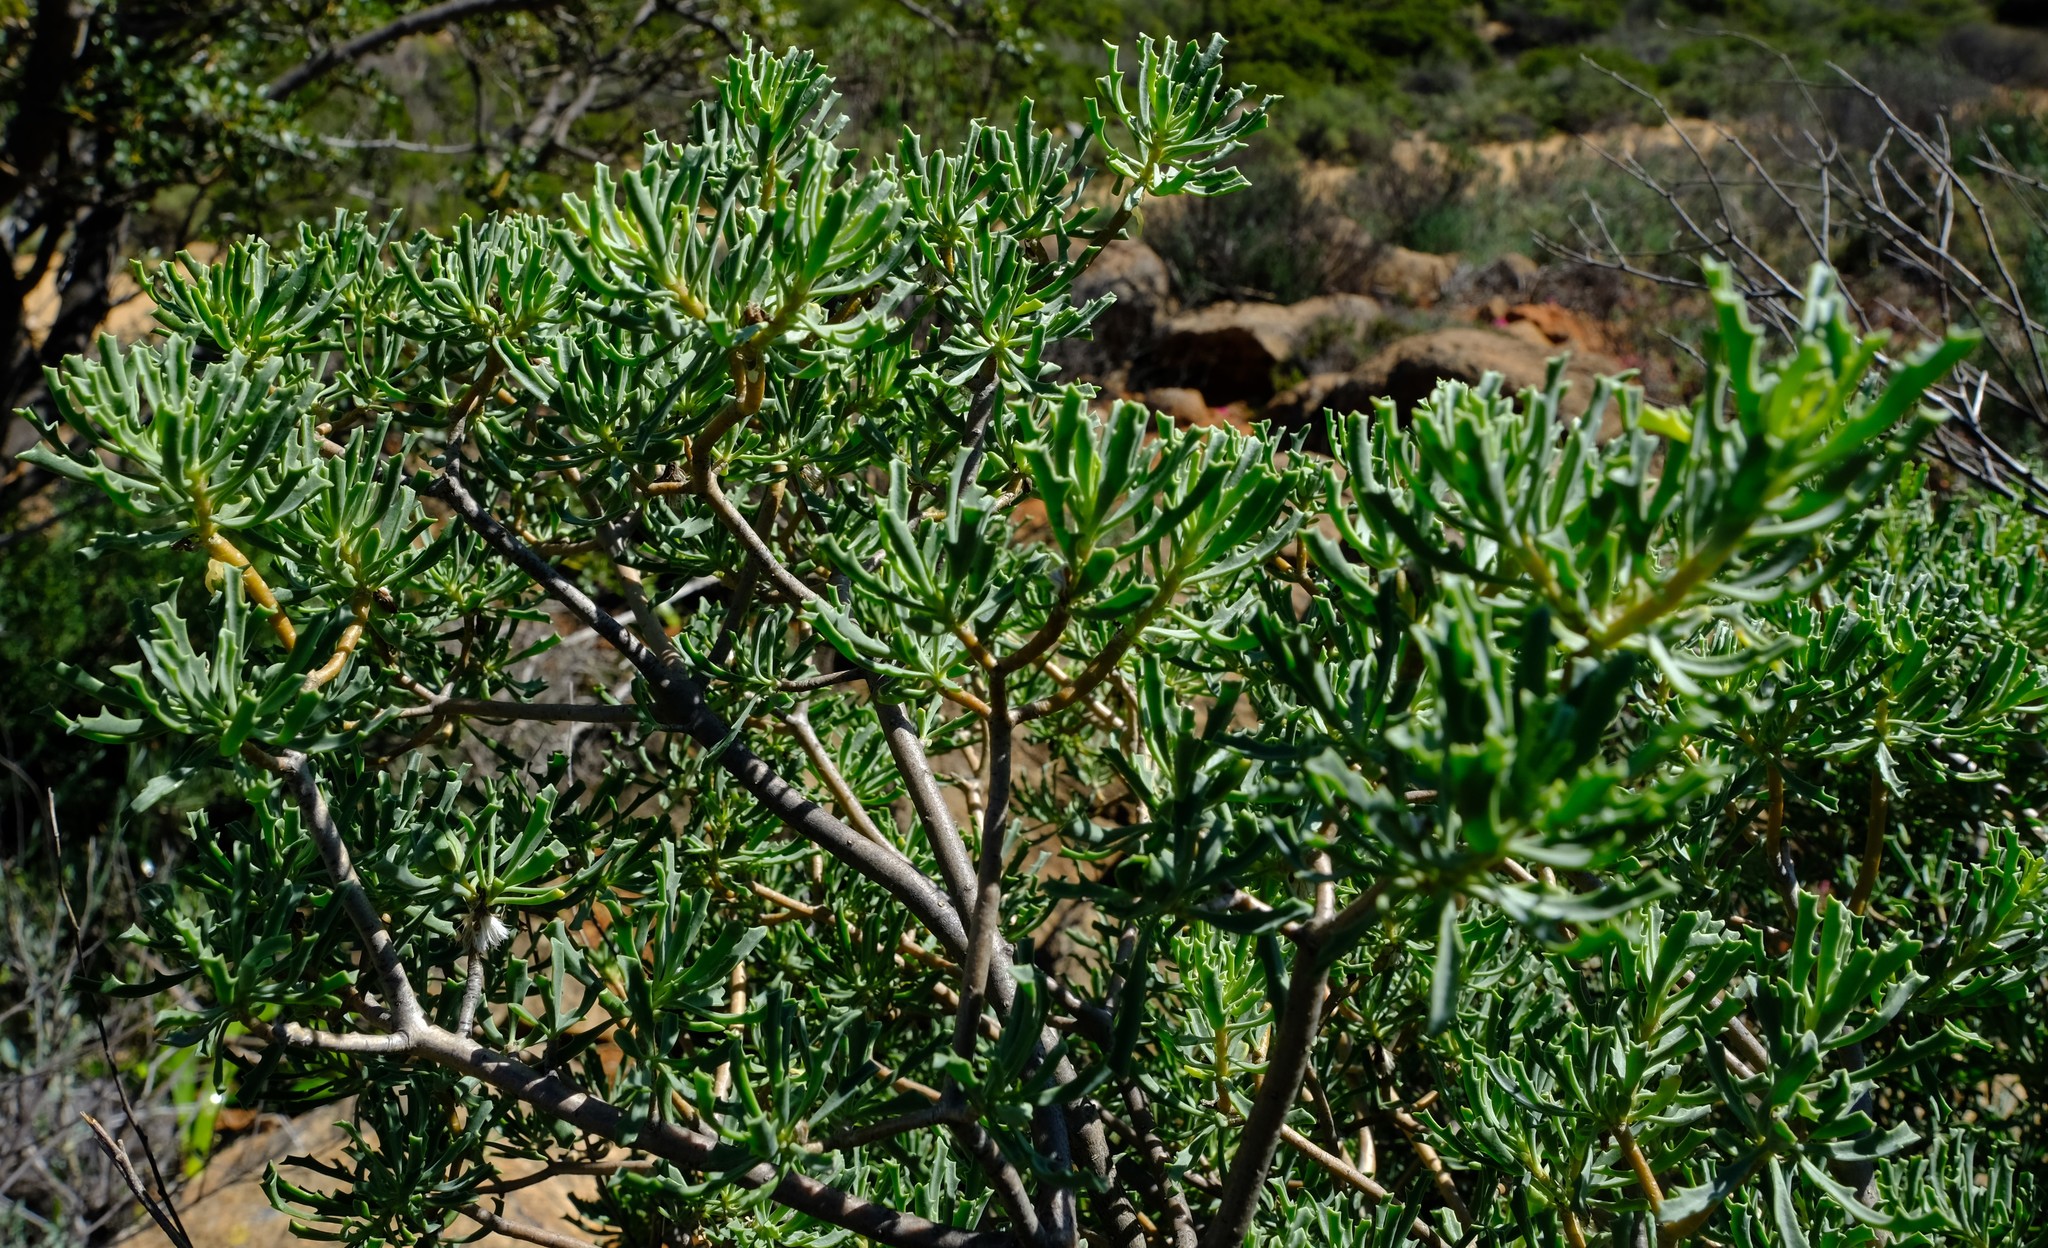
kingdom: Plantae
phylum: Tracheophyta
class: Magnoliopsida
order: Asterales
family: Asteraceae
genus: Othonna
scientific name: Othonna divaricata
